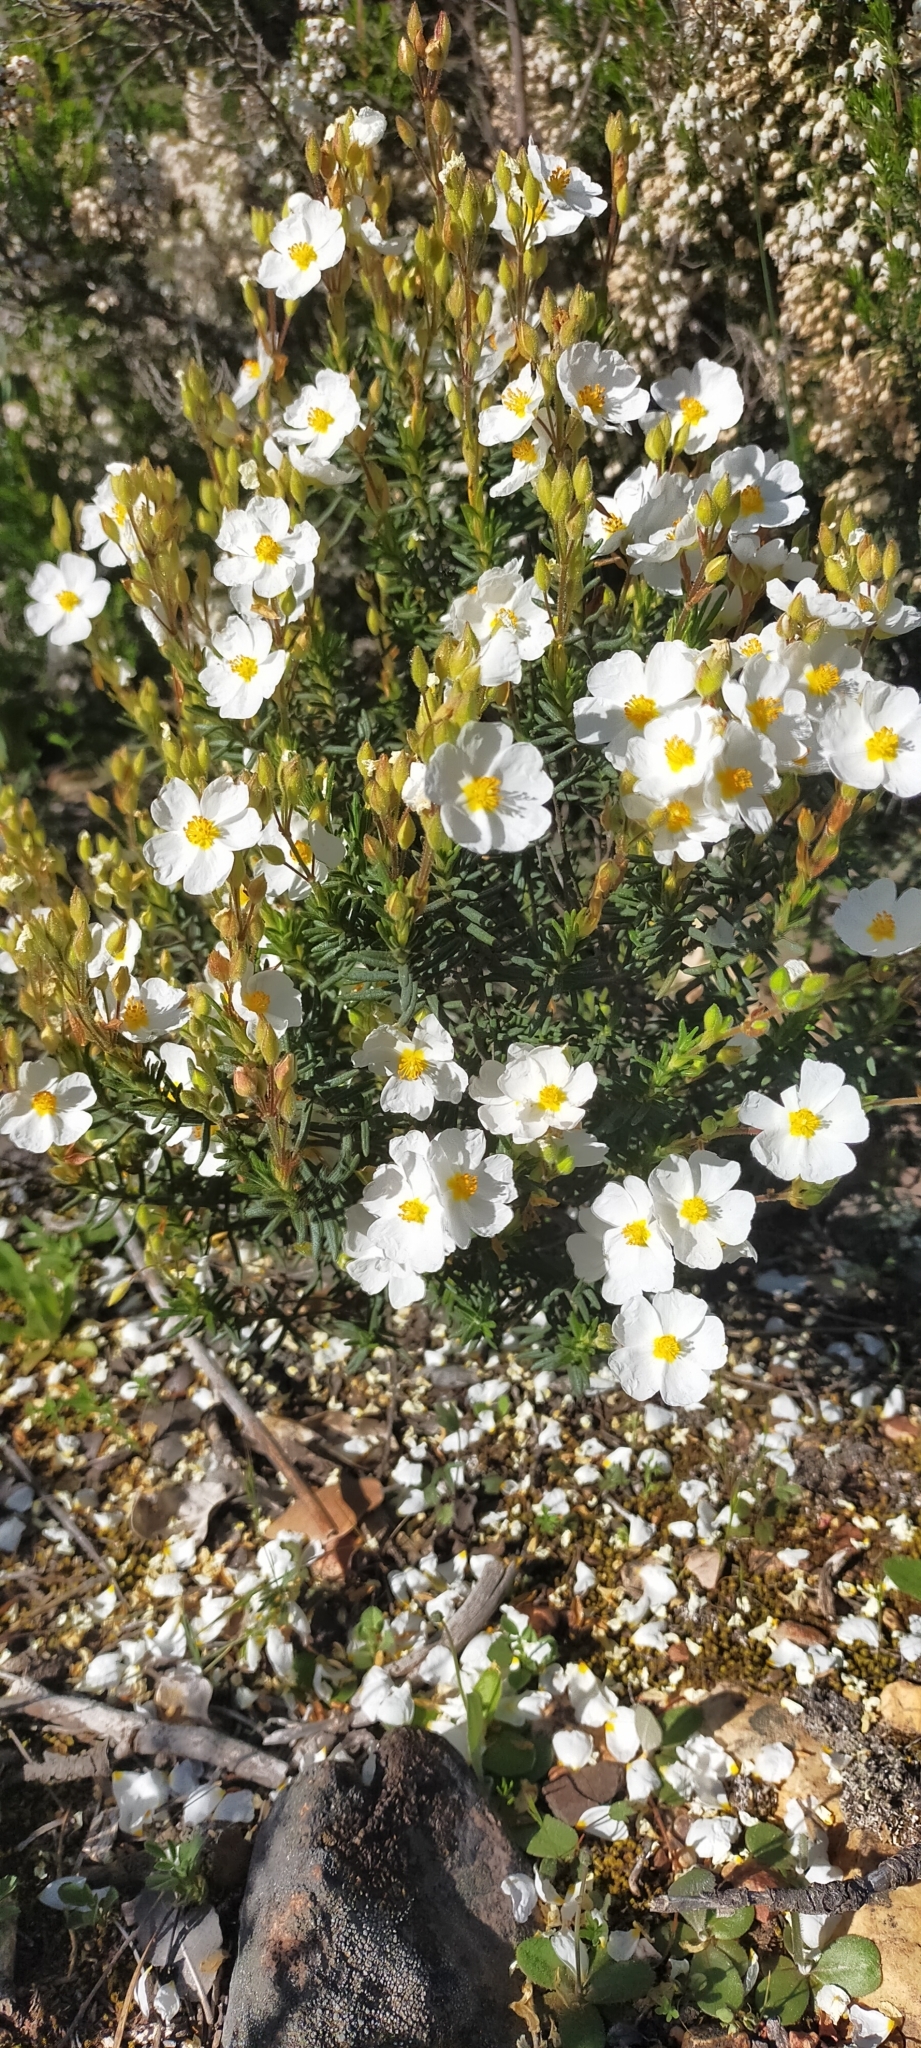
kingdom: Plantae
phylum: Tracheophyta
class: Magnoliopsida
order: Malvales
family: Cistaceae
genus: Halimium
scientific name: Halimium umbellatum
